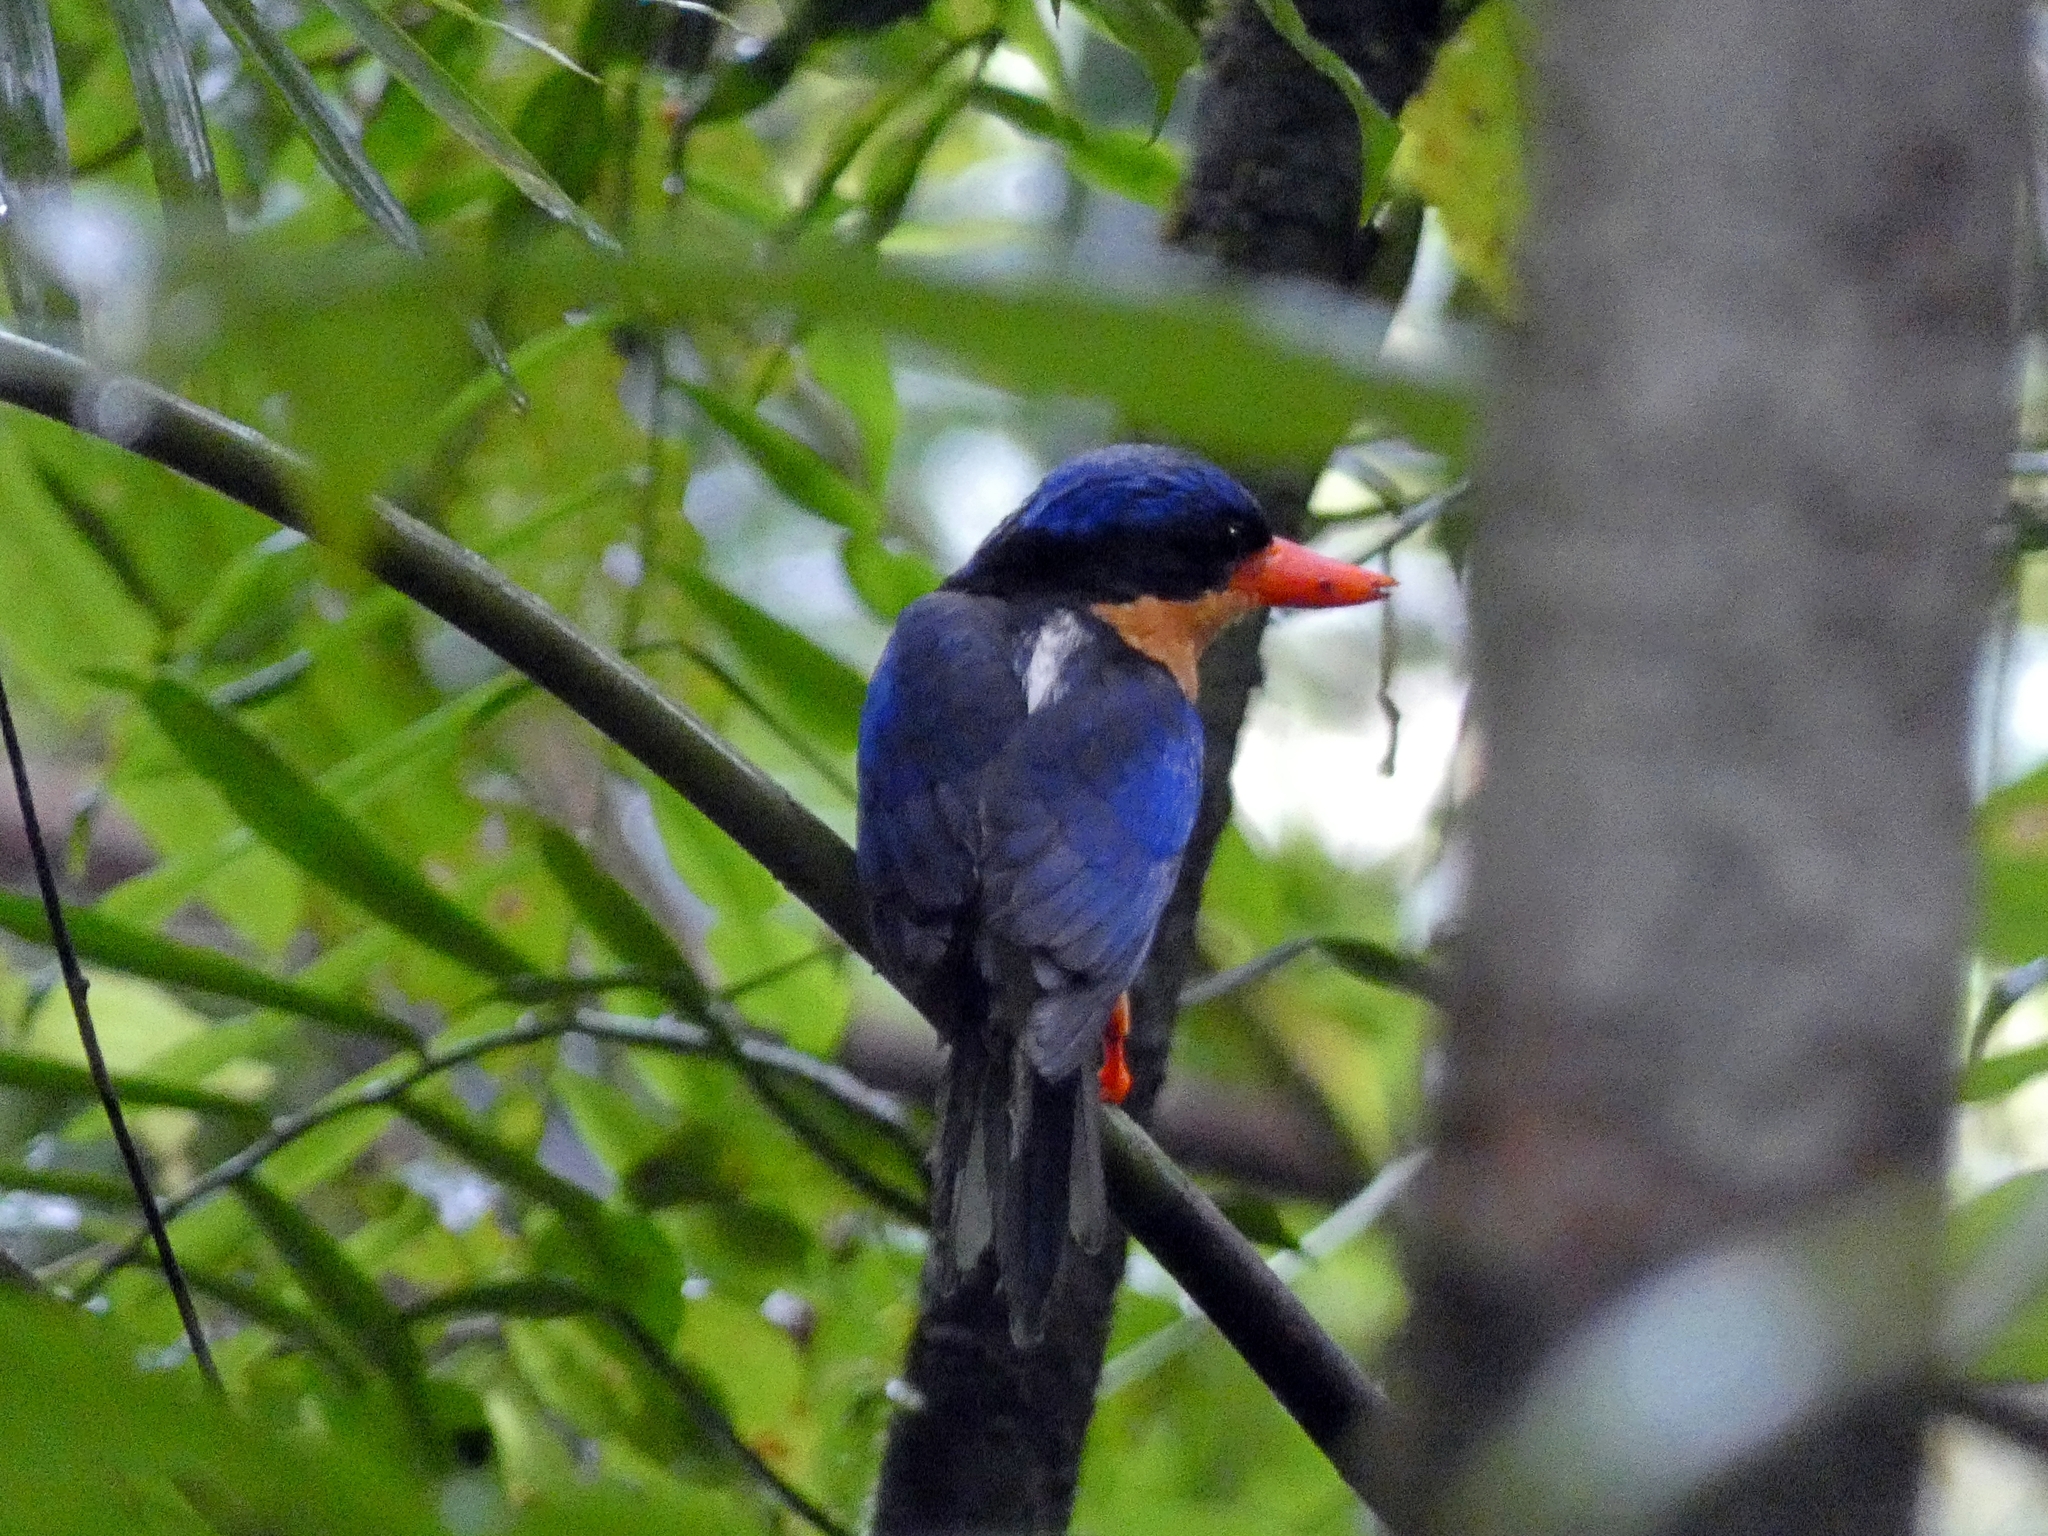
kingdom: Animalia
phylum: Chordata
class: Aves
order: Coraciiformes
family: Alcedinidae
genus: Tanysiptera
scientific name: Tanysiptera sylvia
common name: Buff-breasted paradise kingfisher
